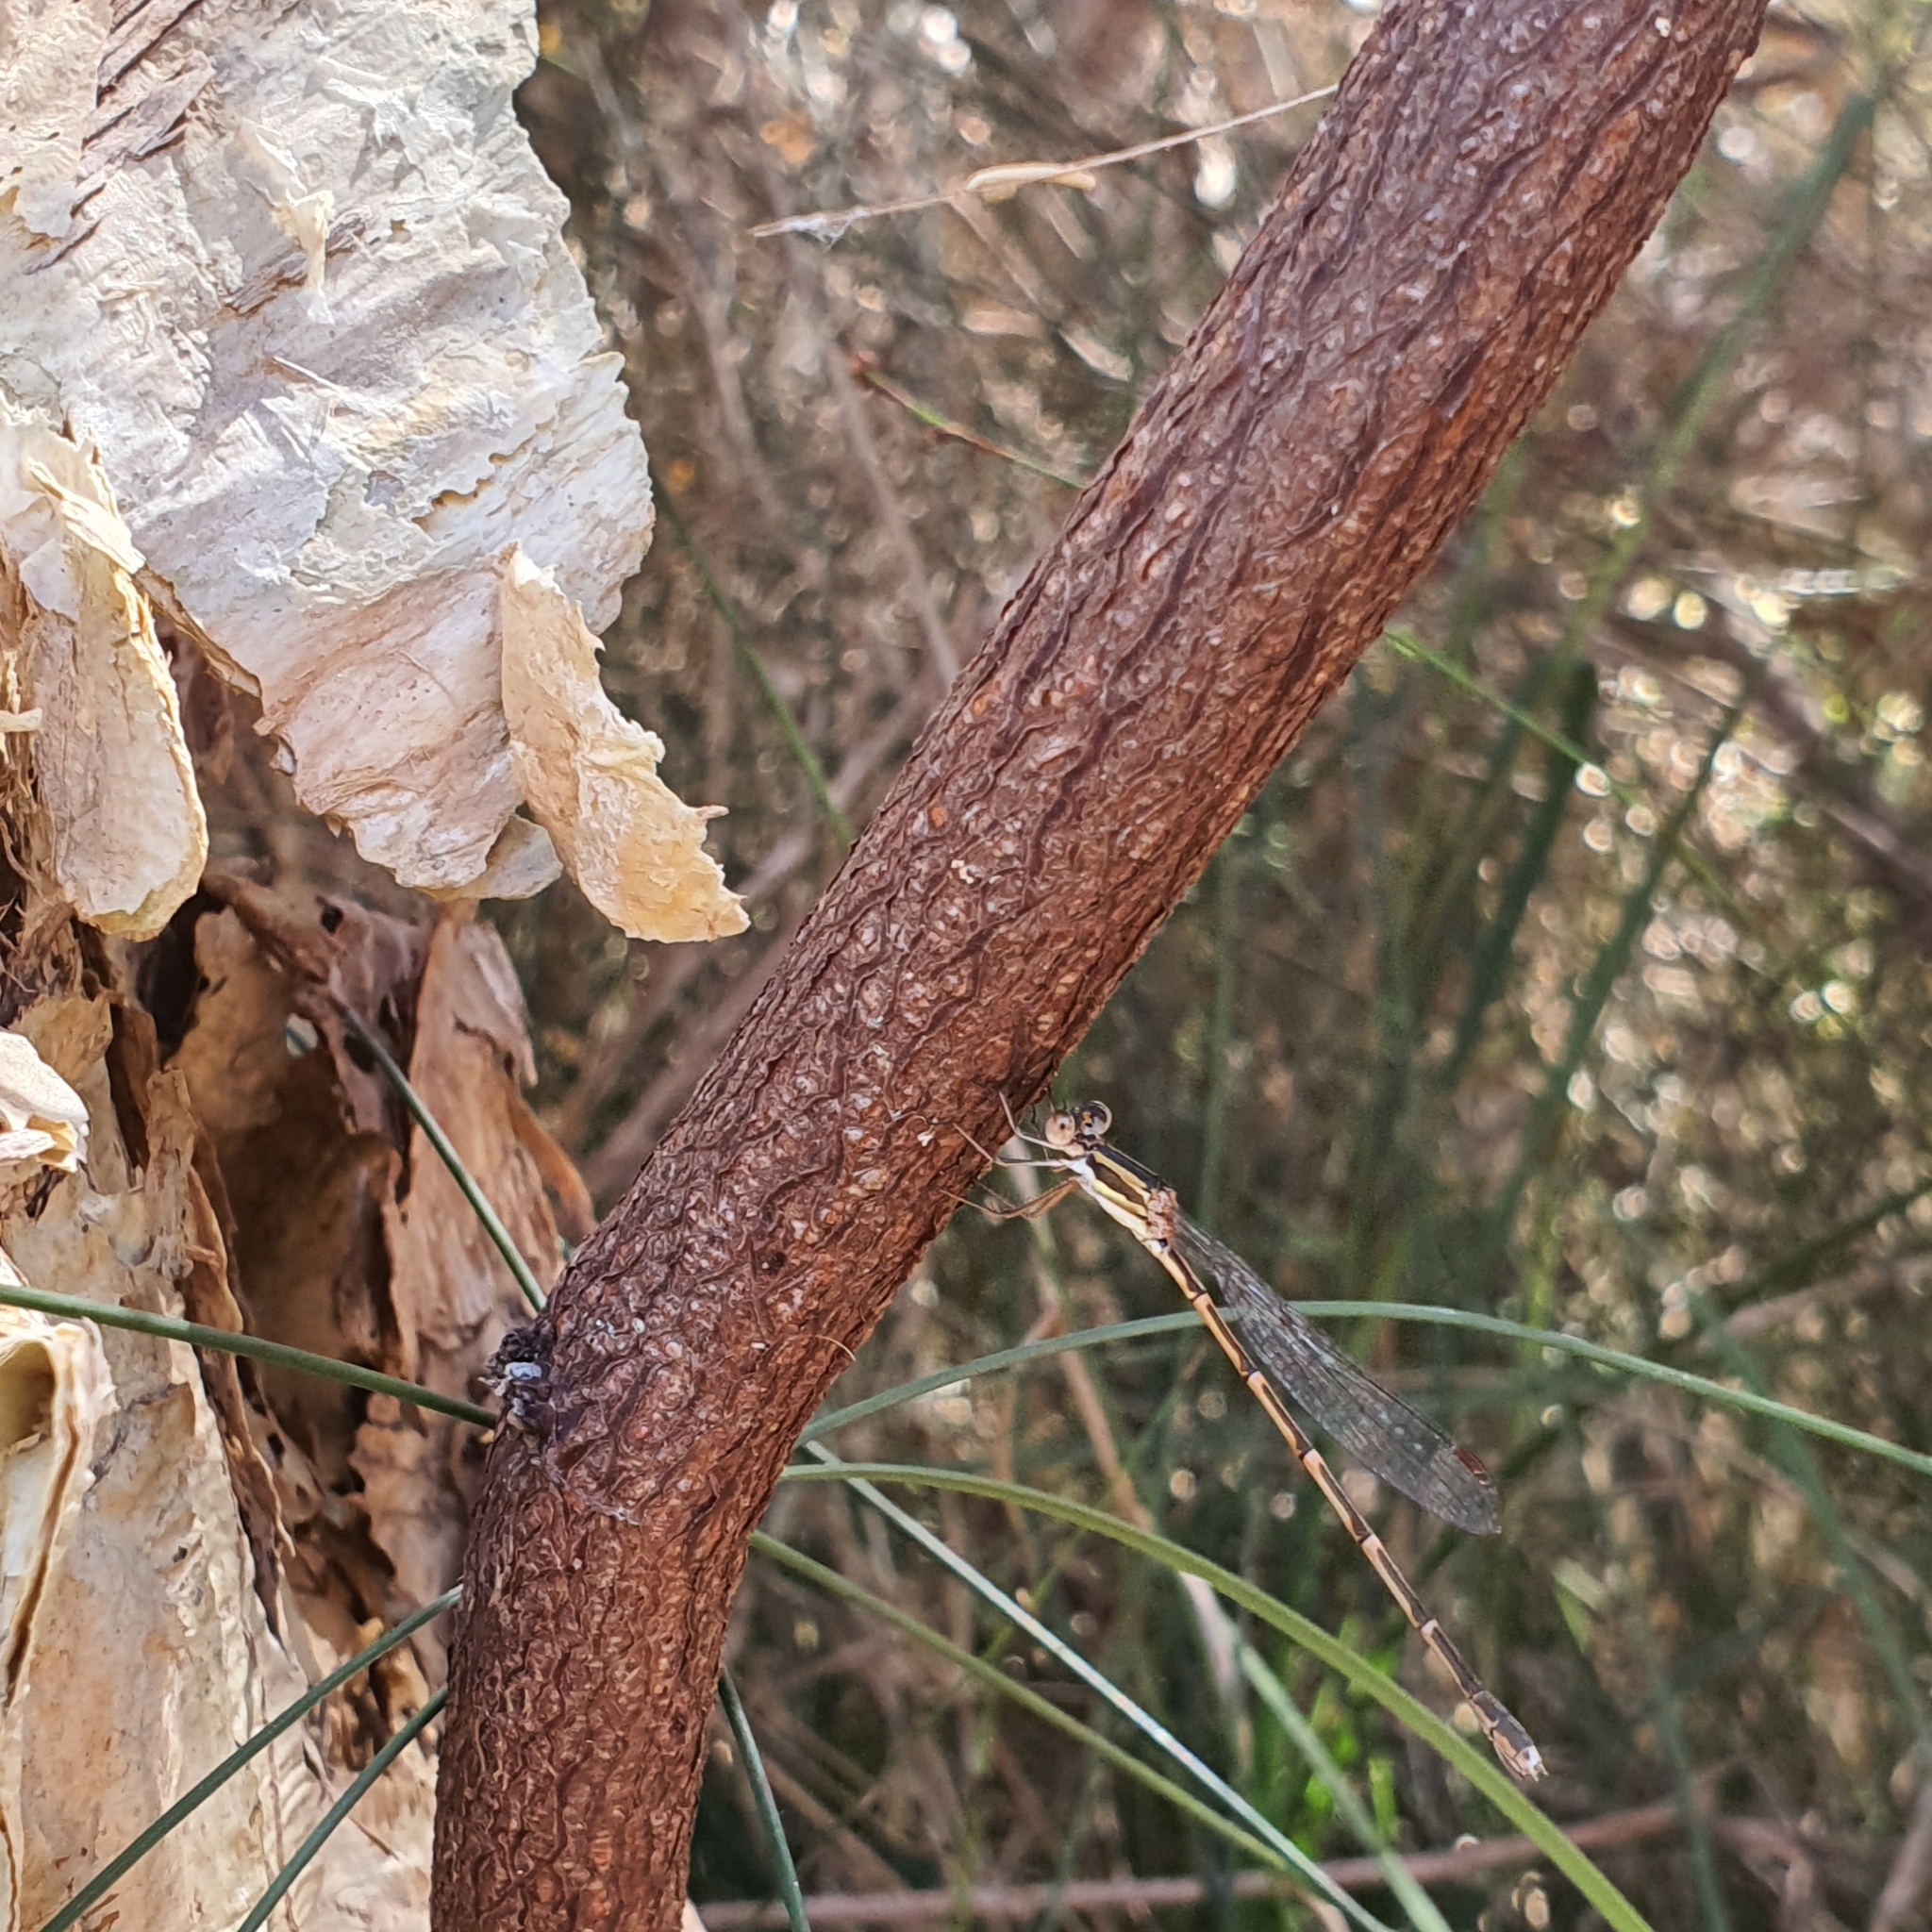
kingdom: Animalia
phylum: Arthropoda
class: Insecta
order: Odonata
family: Lestidae
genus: Austrolestes
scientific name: Austrolestes analis
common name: Slender ringtail
